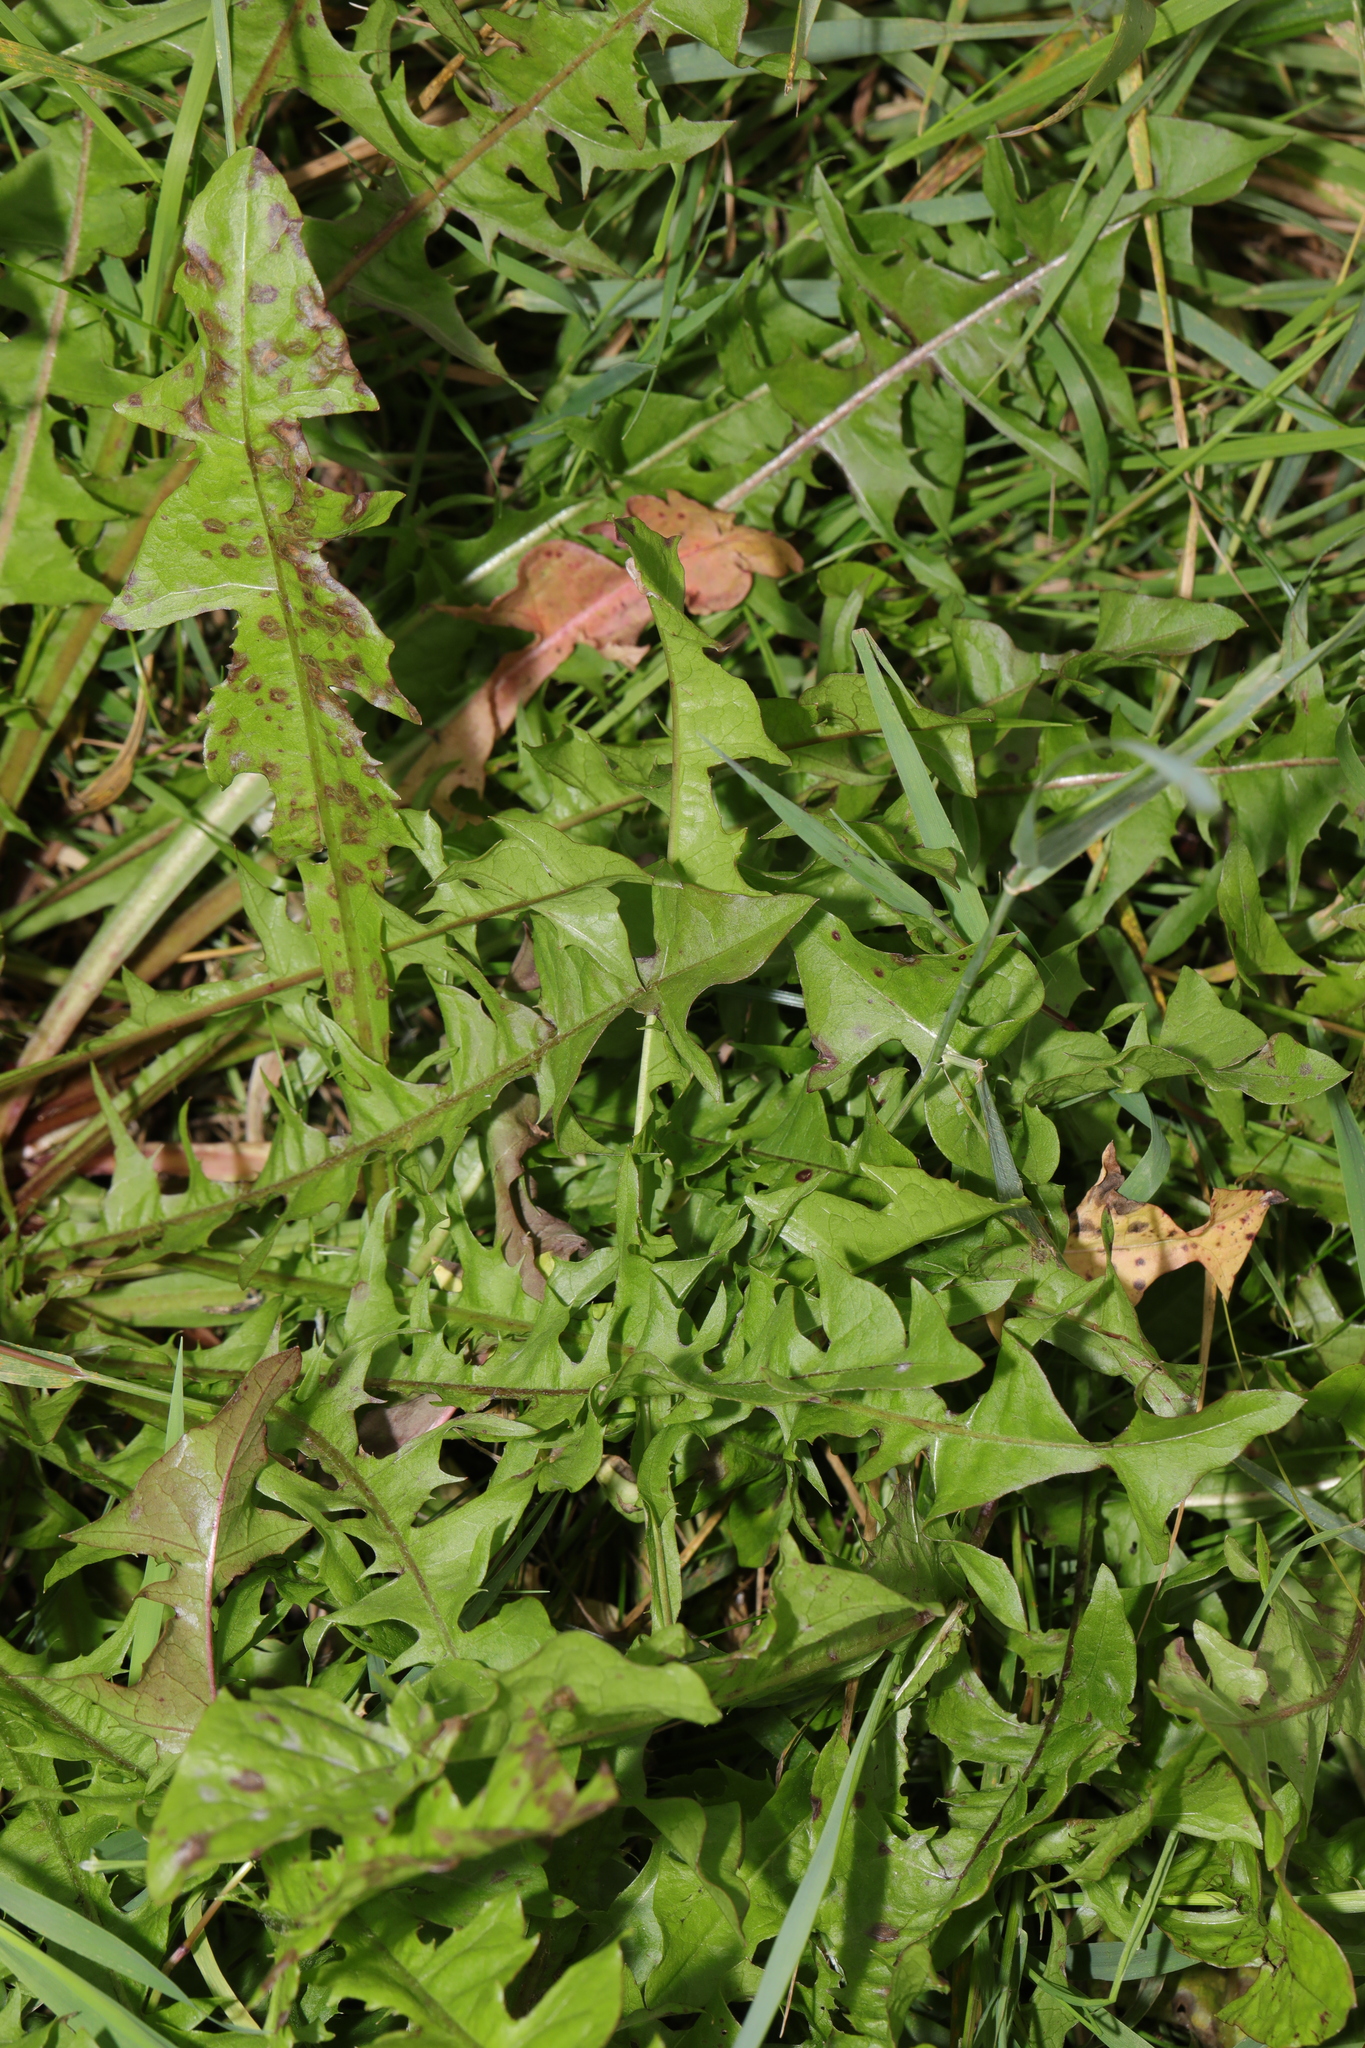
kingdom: Plantae
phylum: Tracheophyta
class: Magnoliopsida
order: Asterales
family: Asteraceae
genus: Taraxacum
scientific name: Taraxacum officinale
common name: Common dandelion
